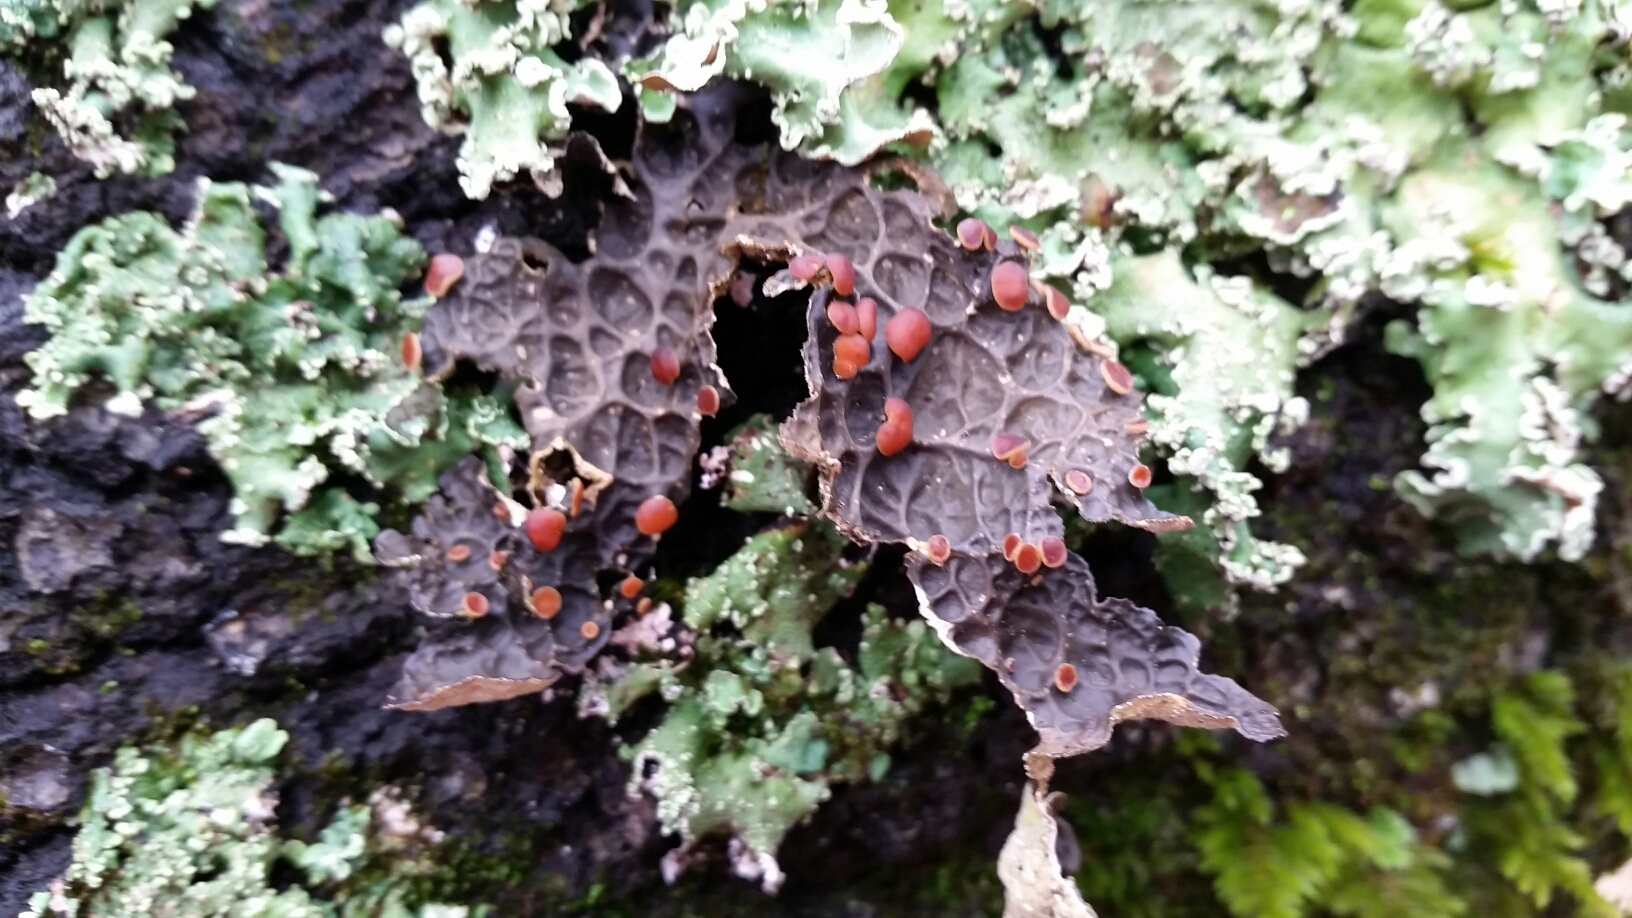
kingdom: Fungi
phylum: Ascomycota
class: Lecanoromycetes
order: Peltigerales
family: Lobariaceae
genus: Lobaria
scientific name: Lobaria anthraspis
